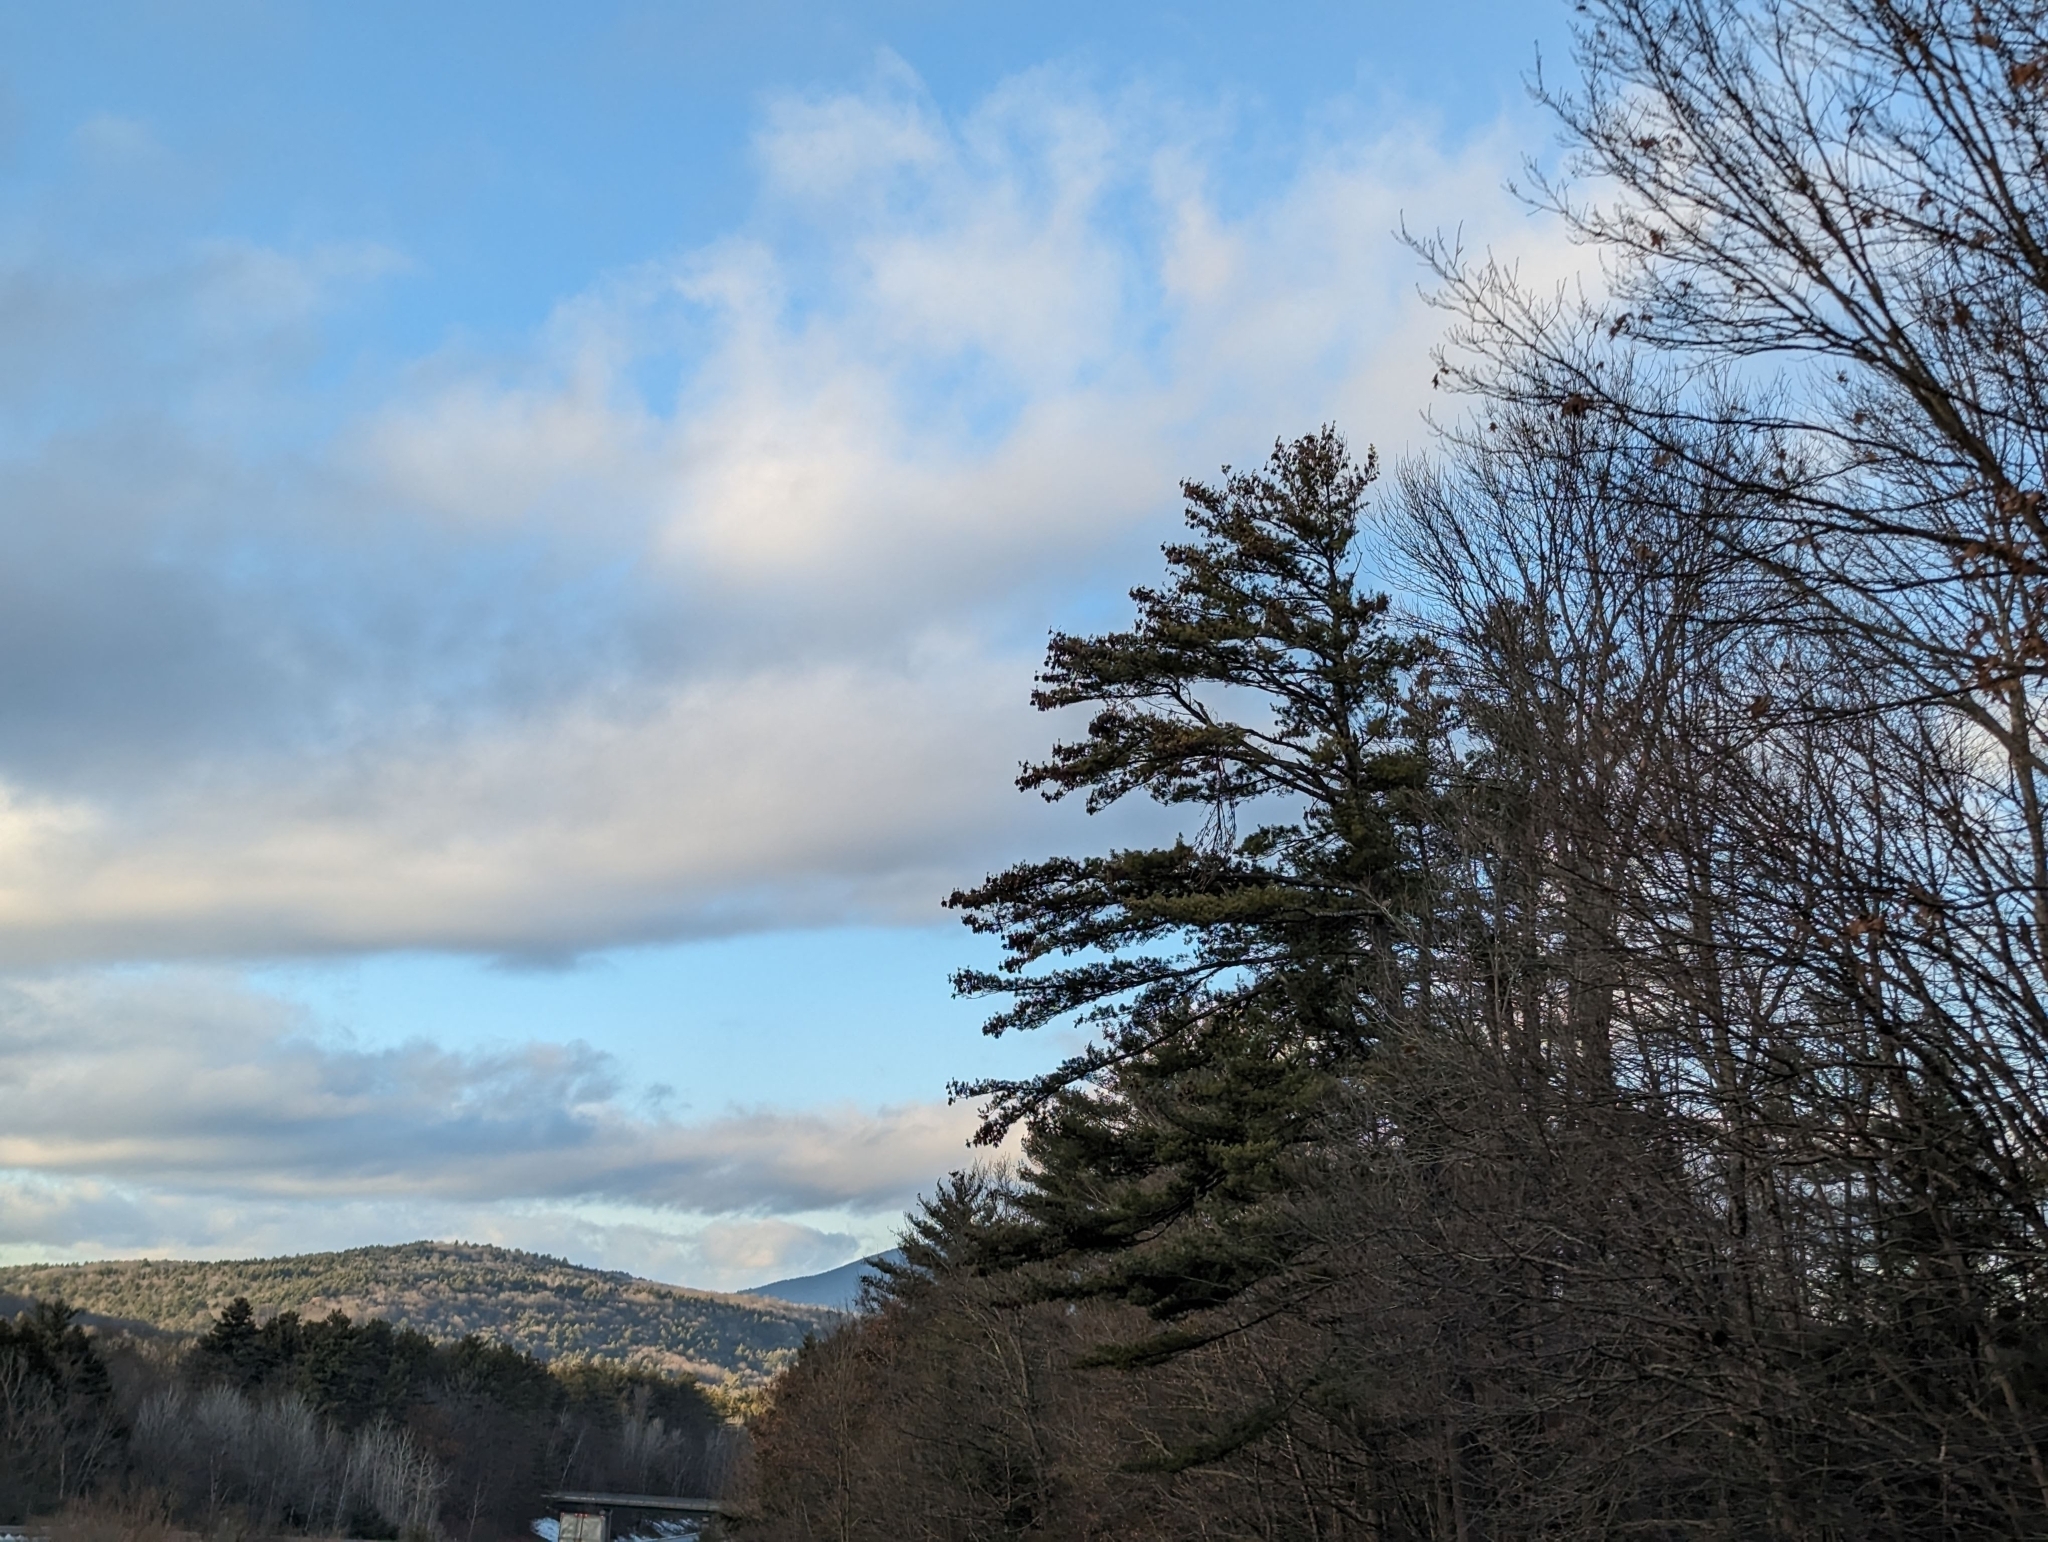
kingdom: Plantae
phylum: Tracheophyta
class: Pinopsida
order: Pinales
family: Pinaceae
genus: Pinus
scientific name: Pinus strobus
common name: Weymouth pine
